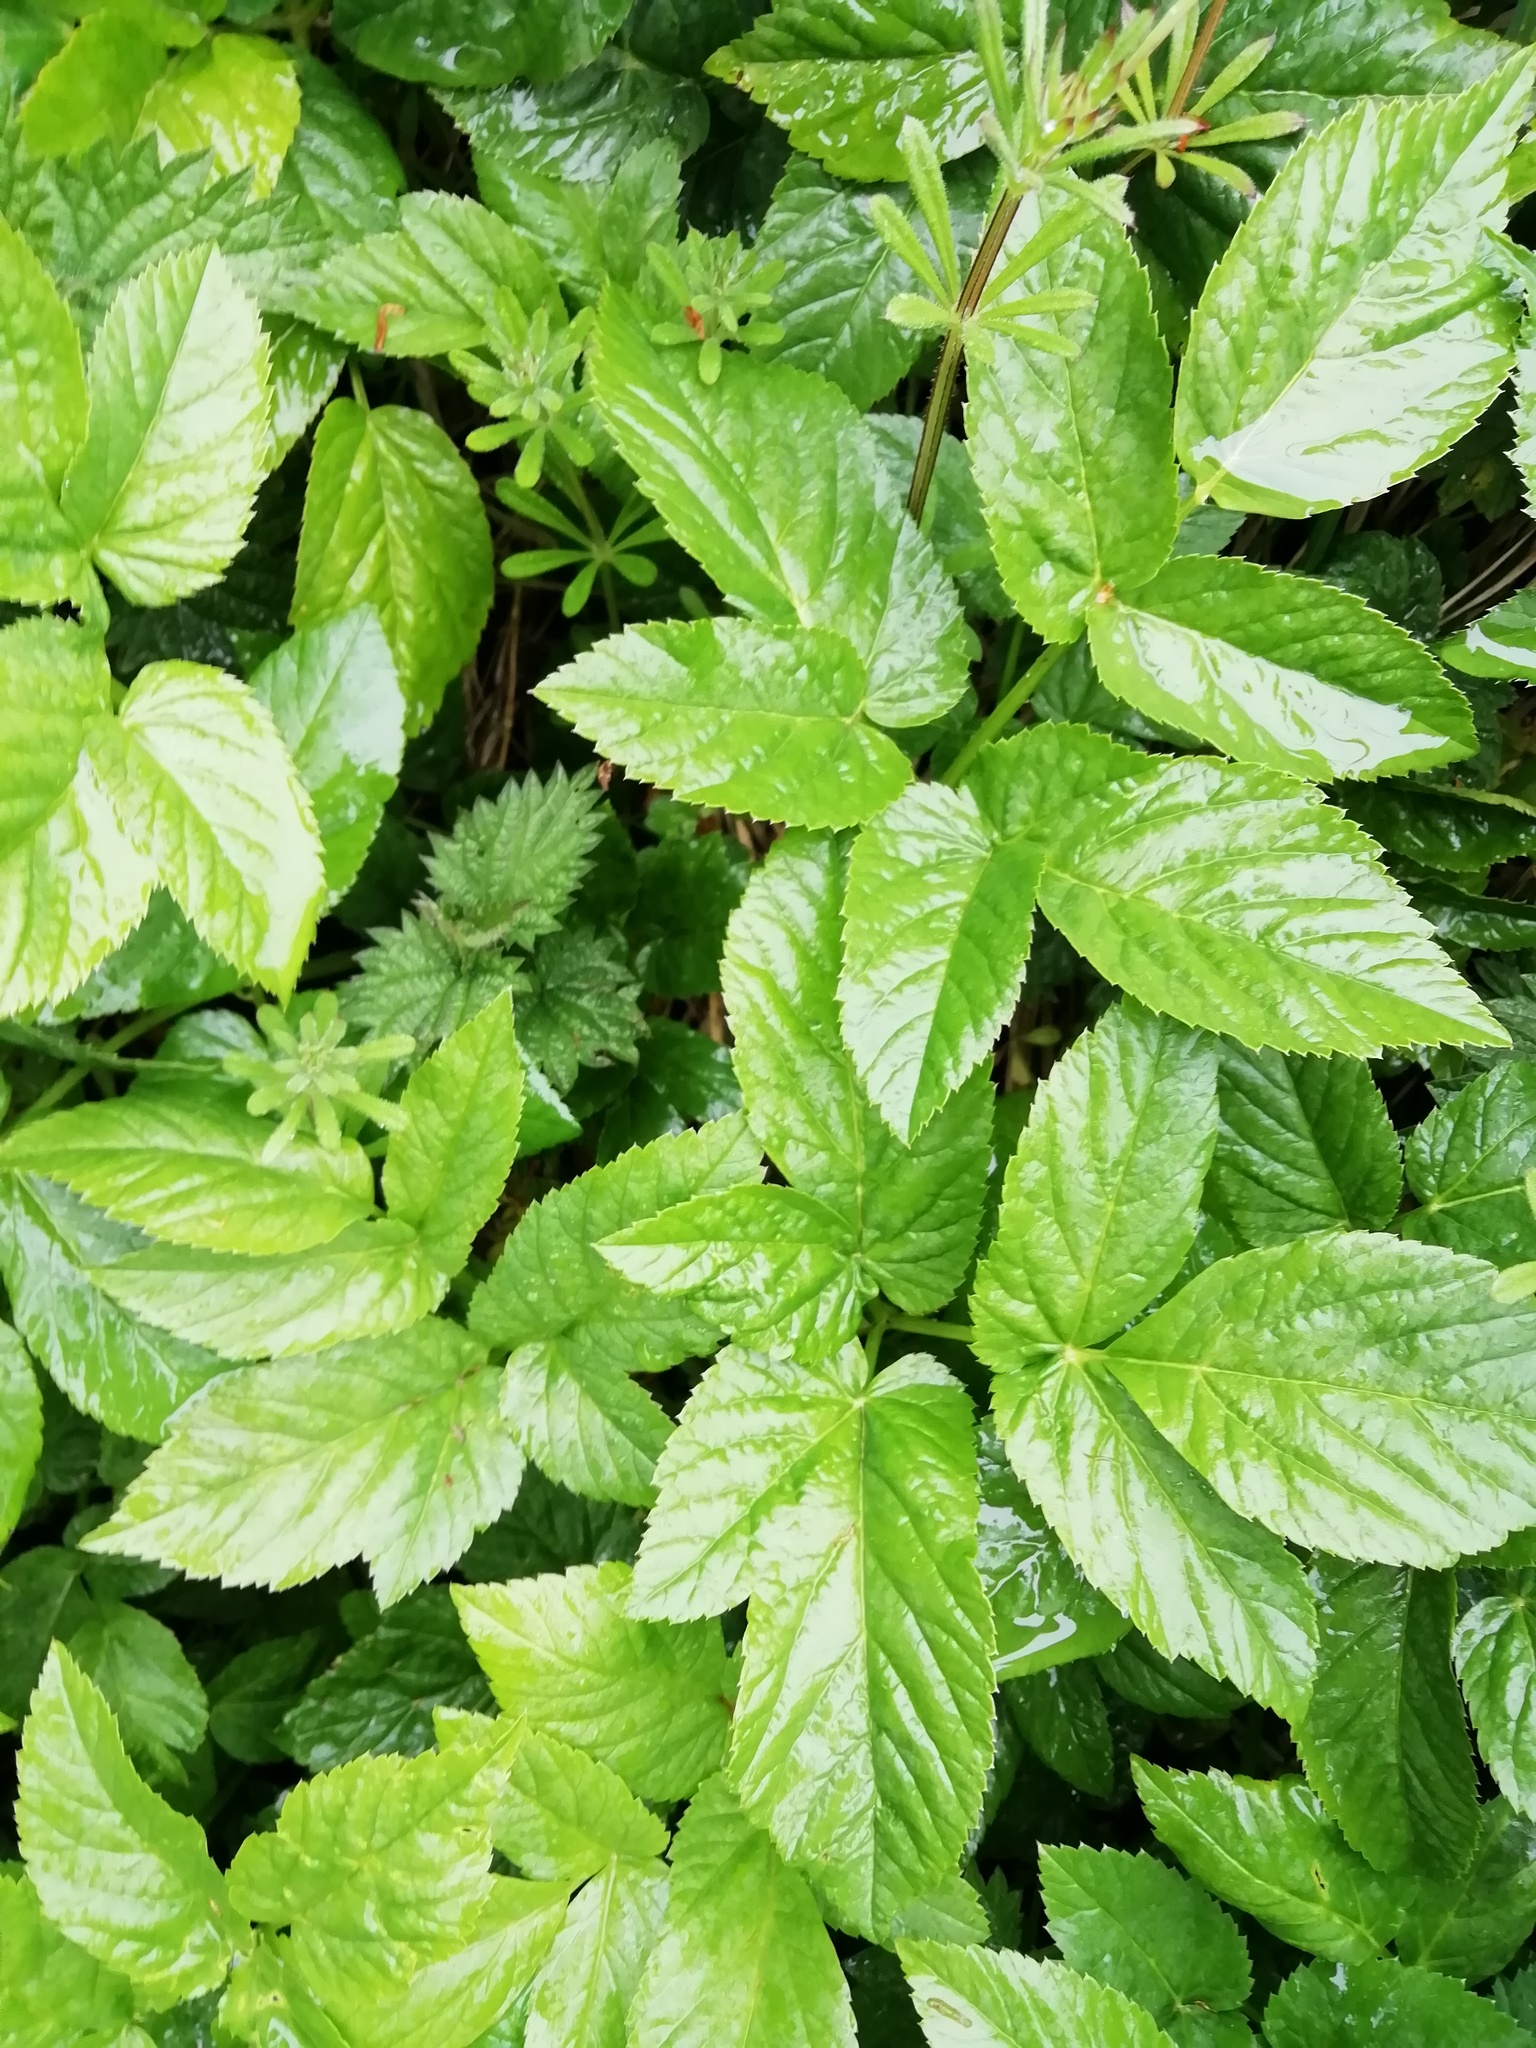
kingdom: Plantae
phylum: Tracheophyta
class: Magnoliopsida
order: Apiales
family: Apiaceae
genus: Aegopodium
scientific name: Aegopodium podagraria
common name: Ground-elder
